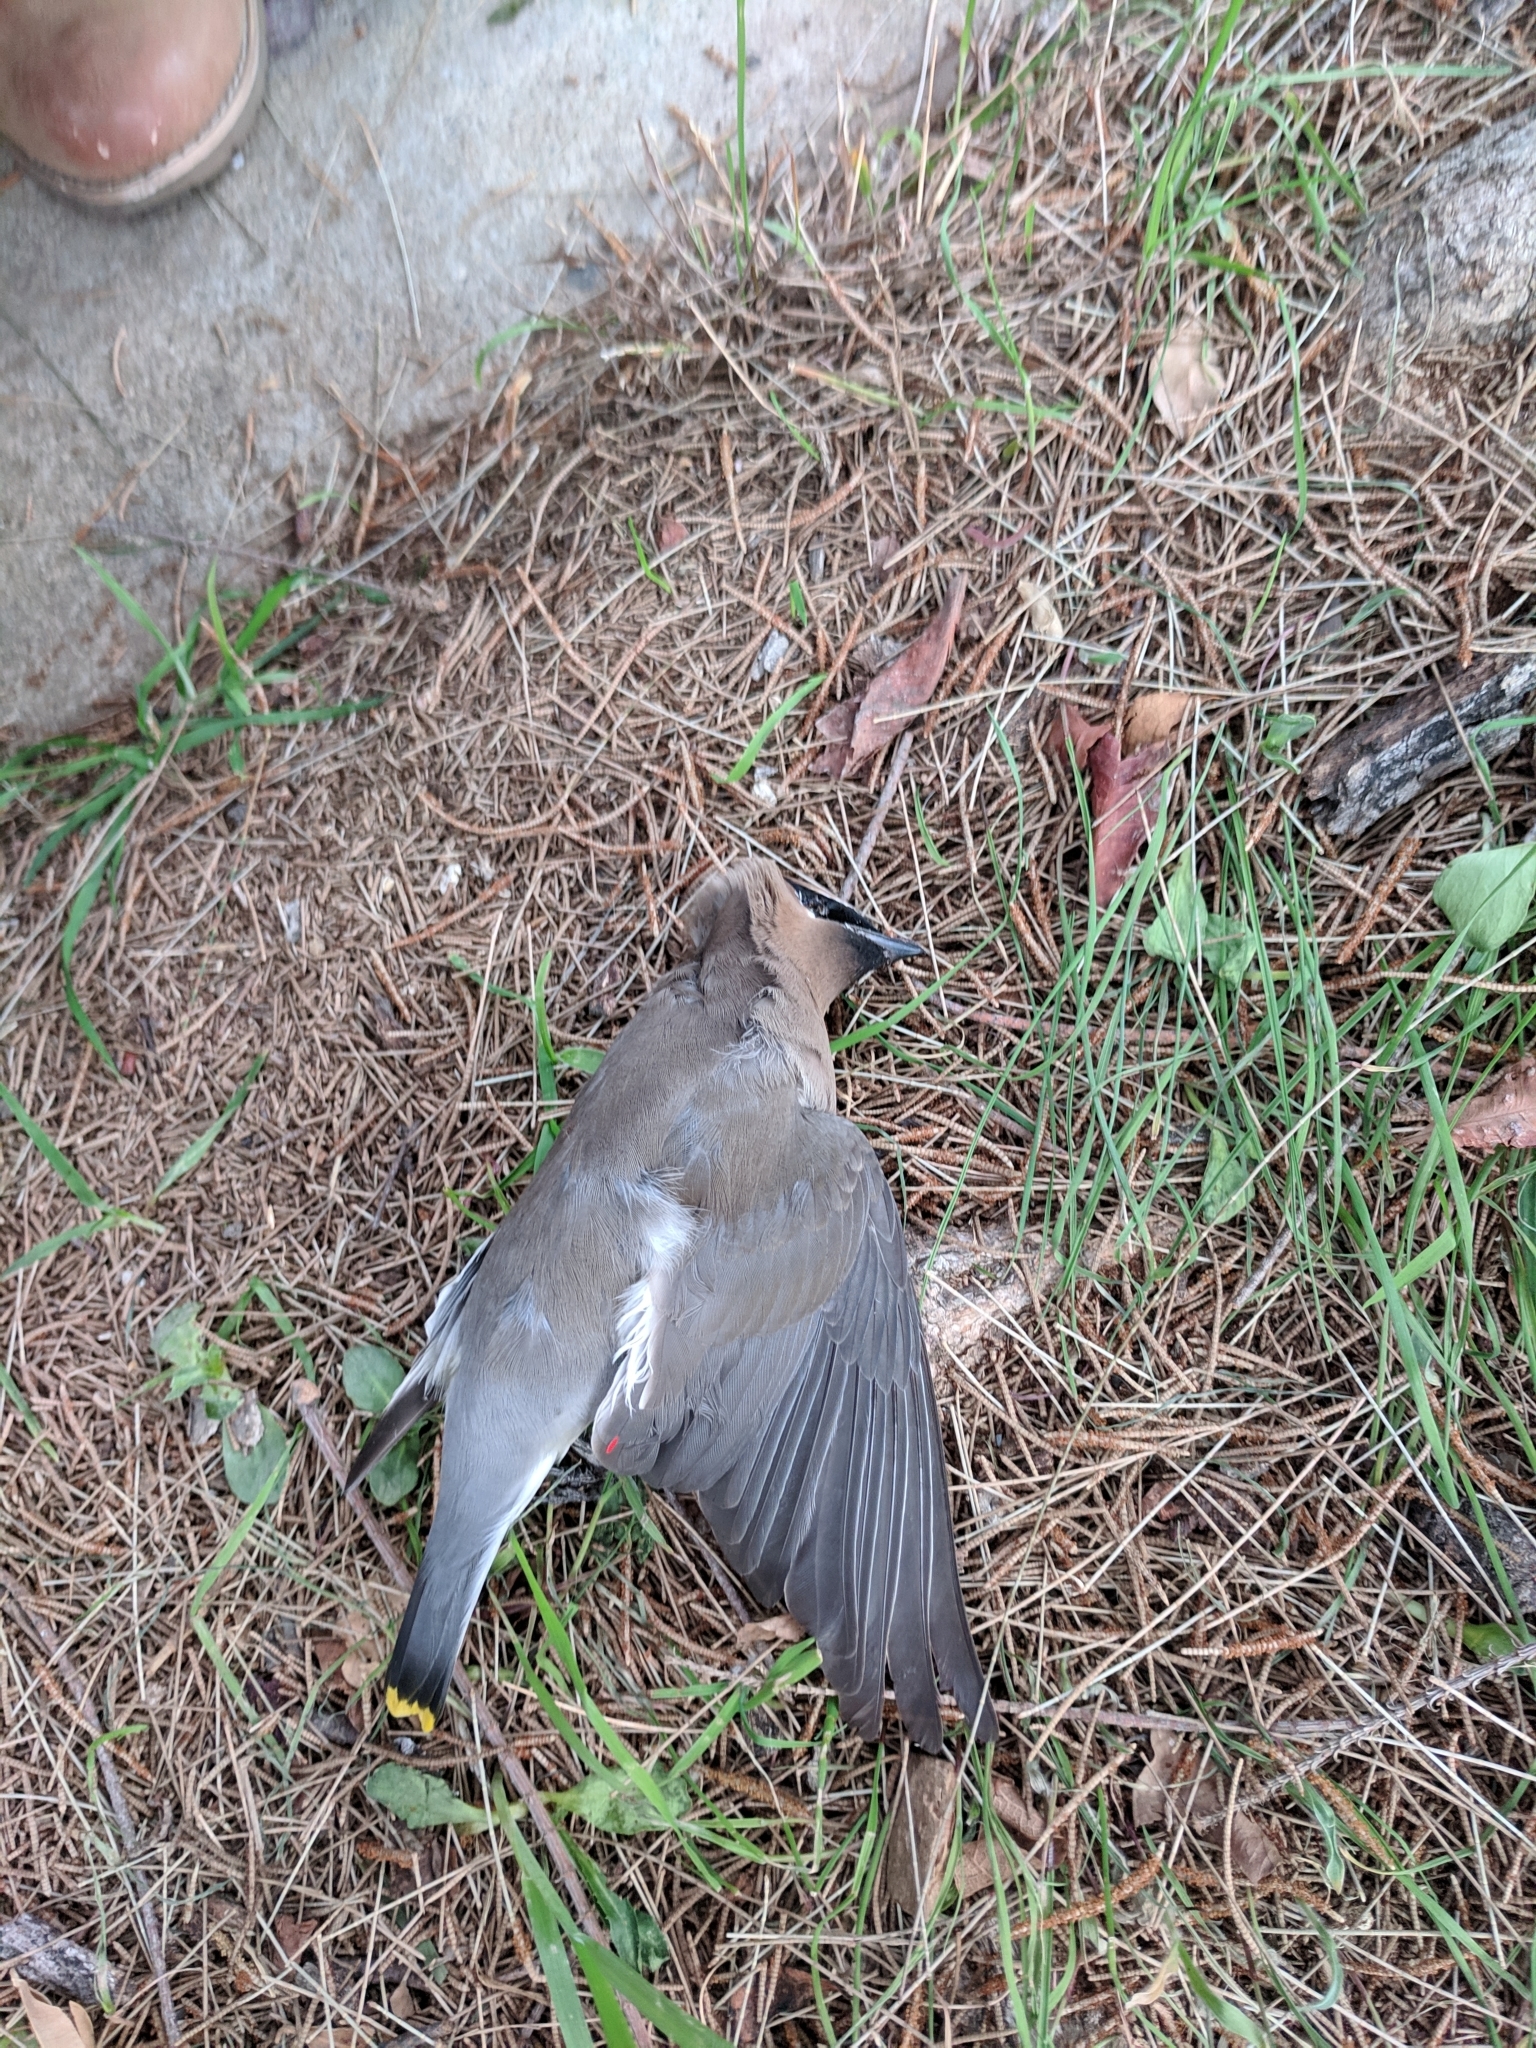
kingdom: Animalia
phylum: Chordata
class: Aves
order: Passeriformes
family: Bombycillidae
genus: Bombycilla
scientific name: Bombycilla cedrorum
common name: Cedar waxwing
